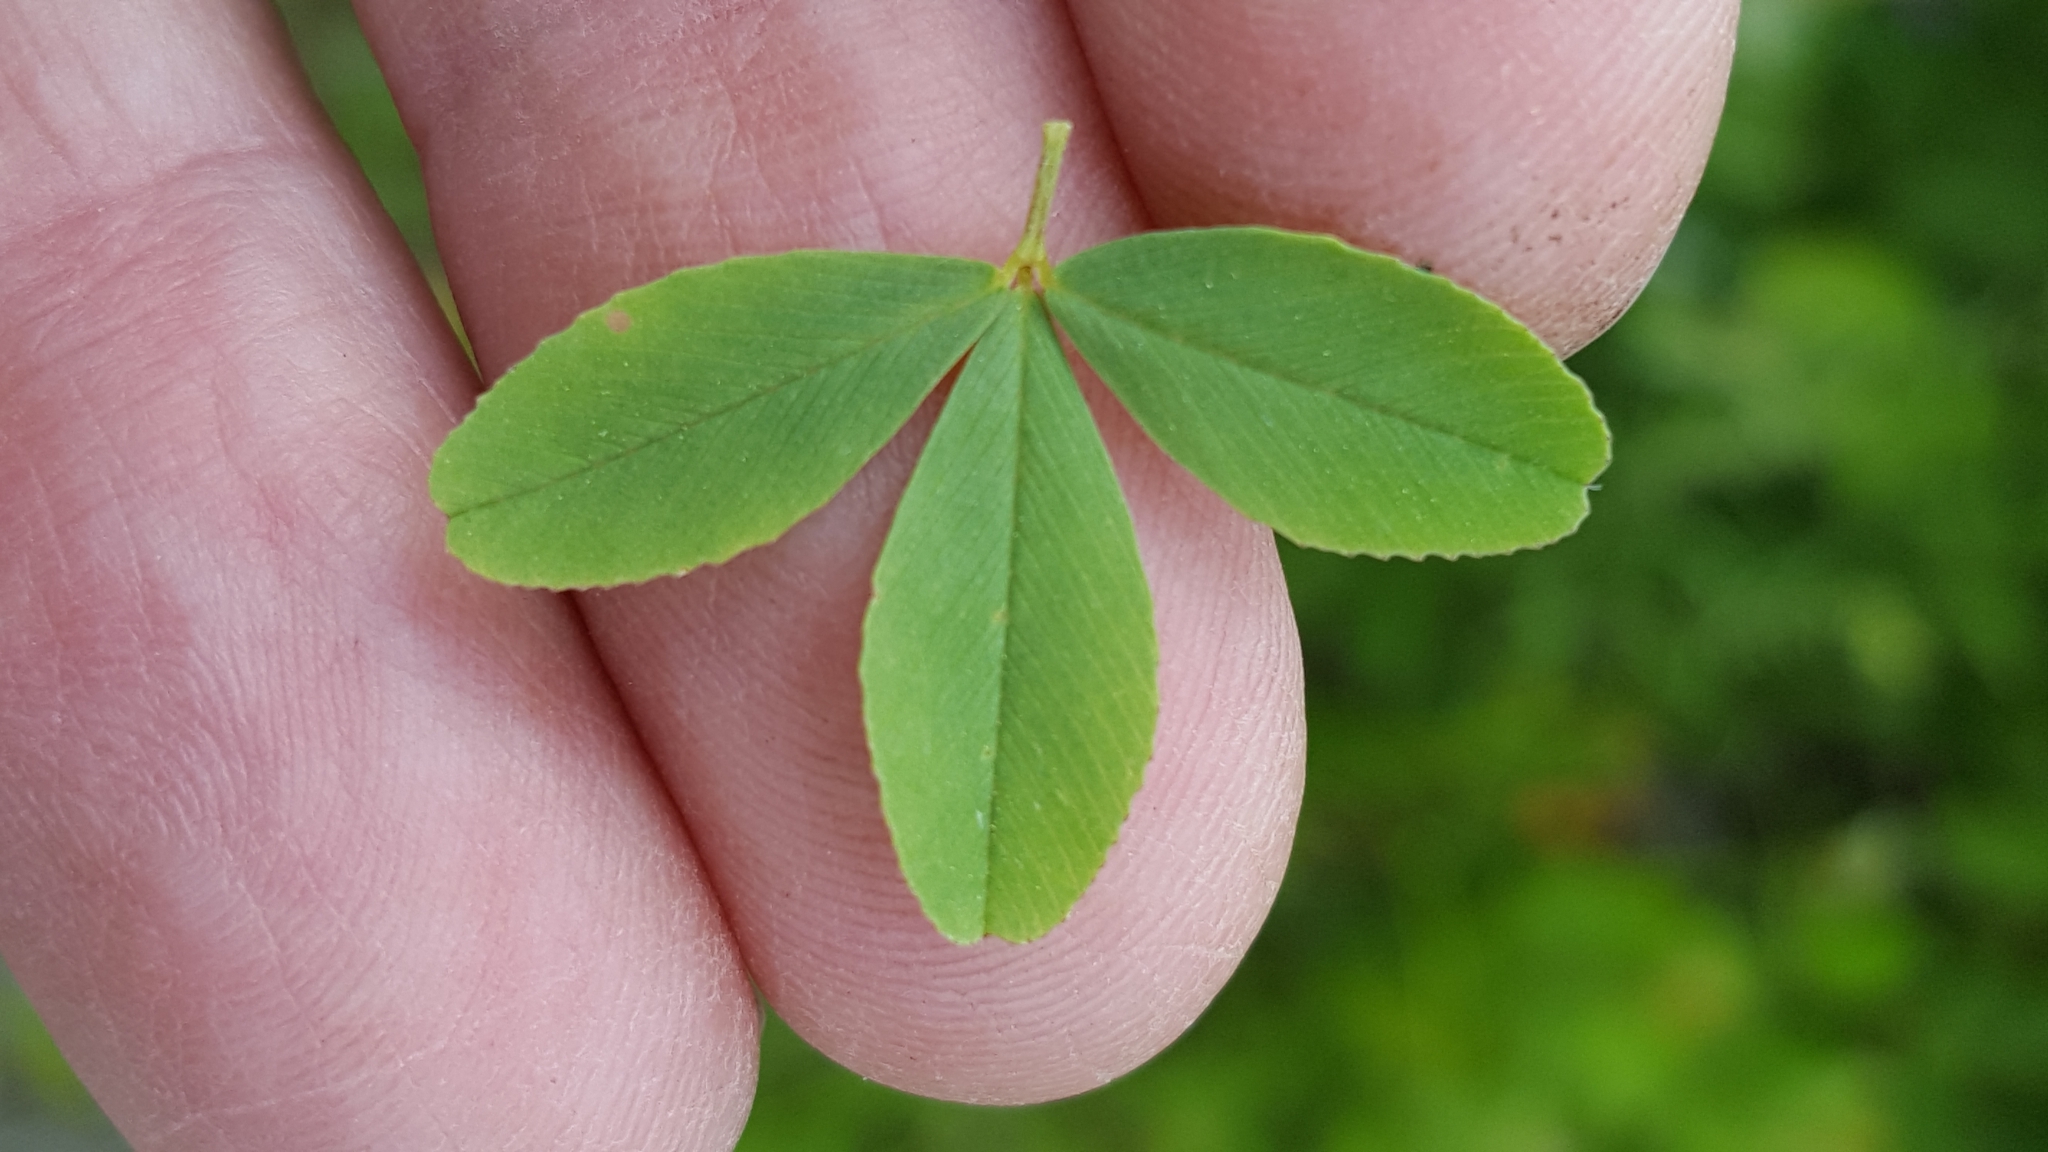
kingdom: Plantae
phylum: Tracheophyta
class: Magnoliopsida
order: Fabales
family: Fabaceae
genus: Trifolium
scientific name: Trifolium aureum
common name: Golden clover
